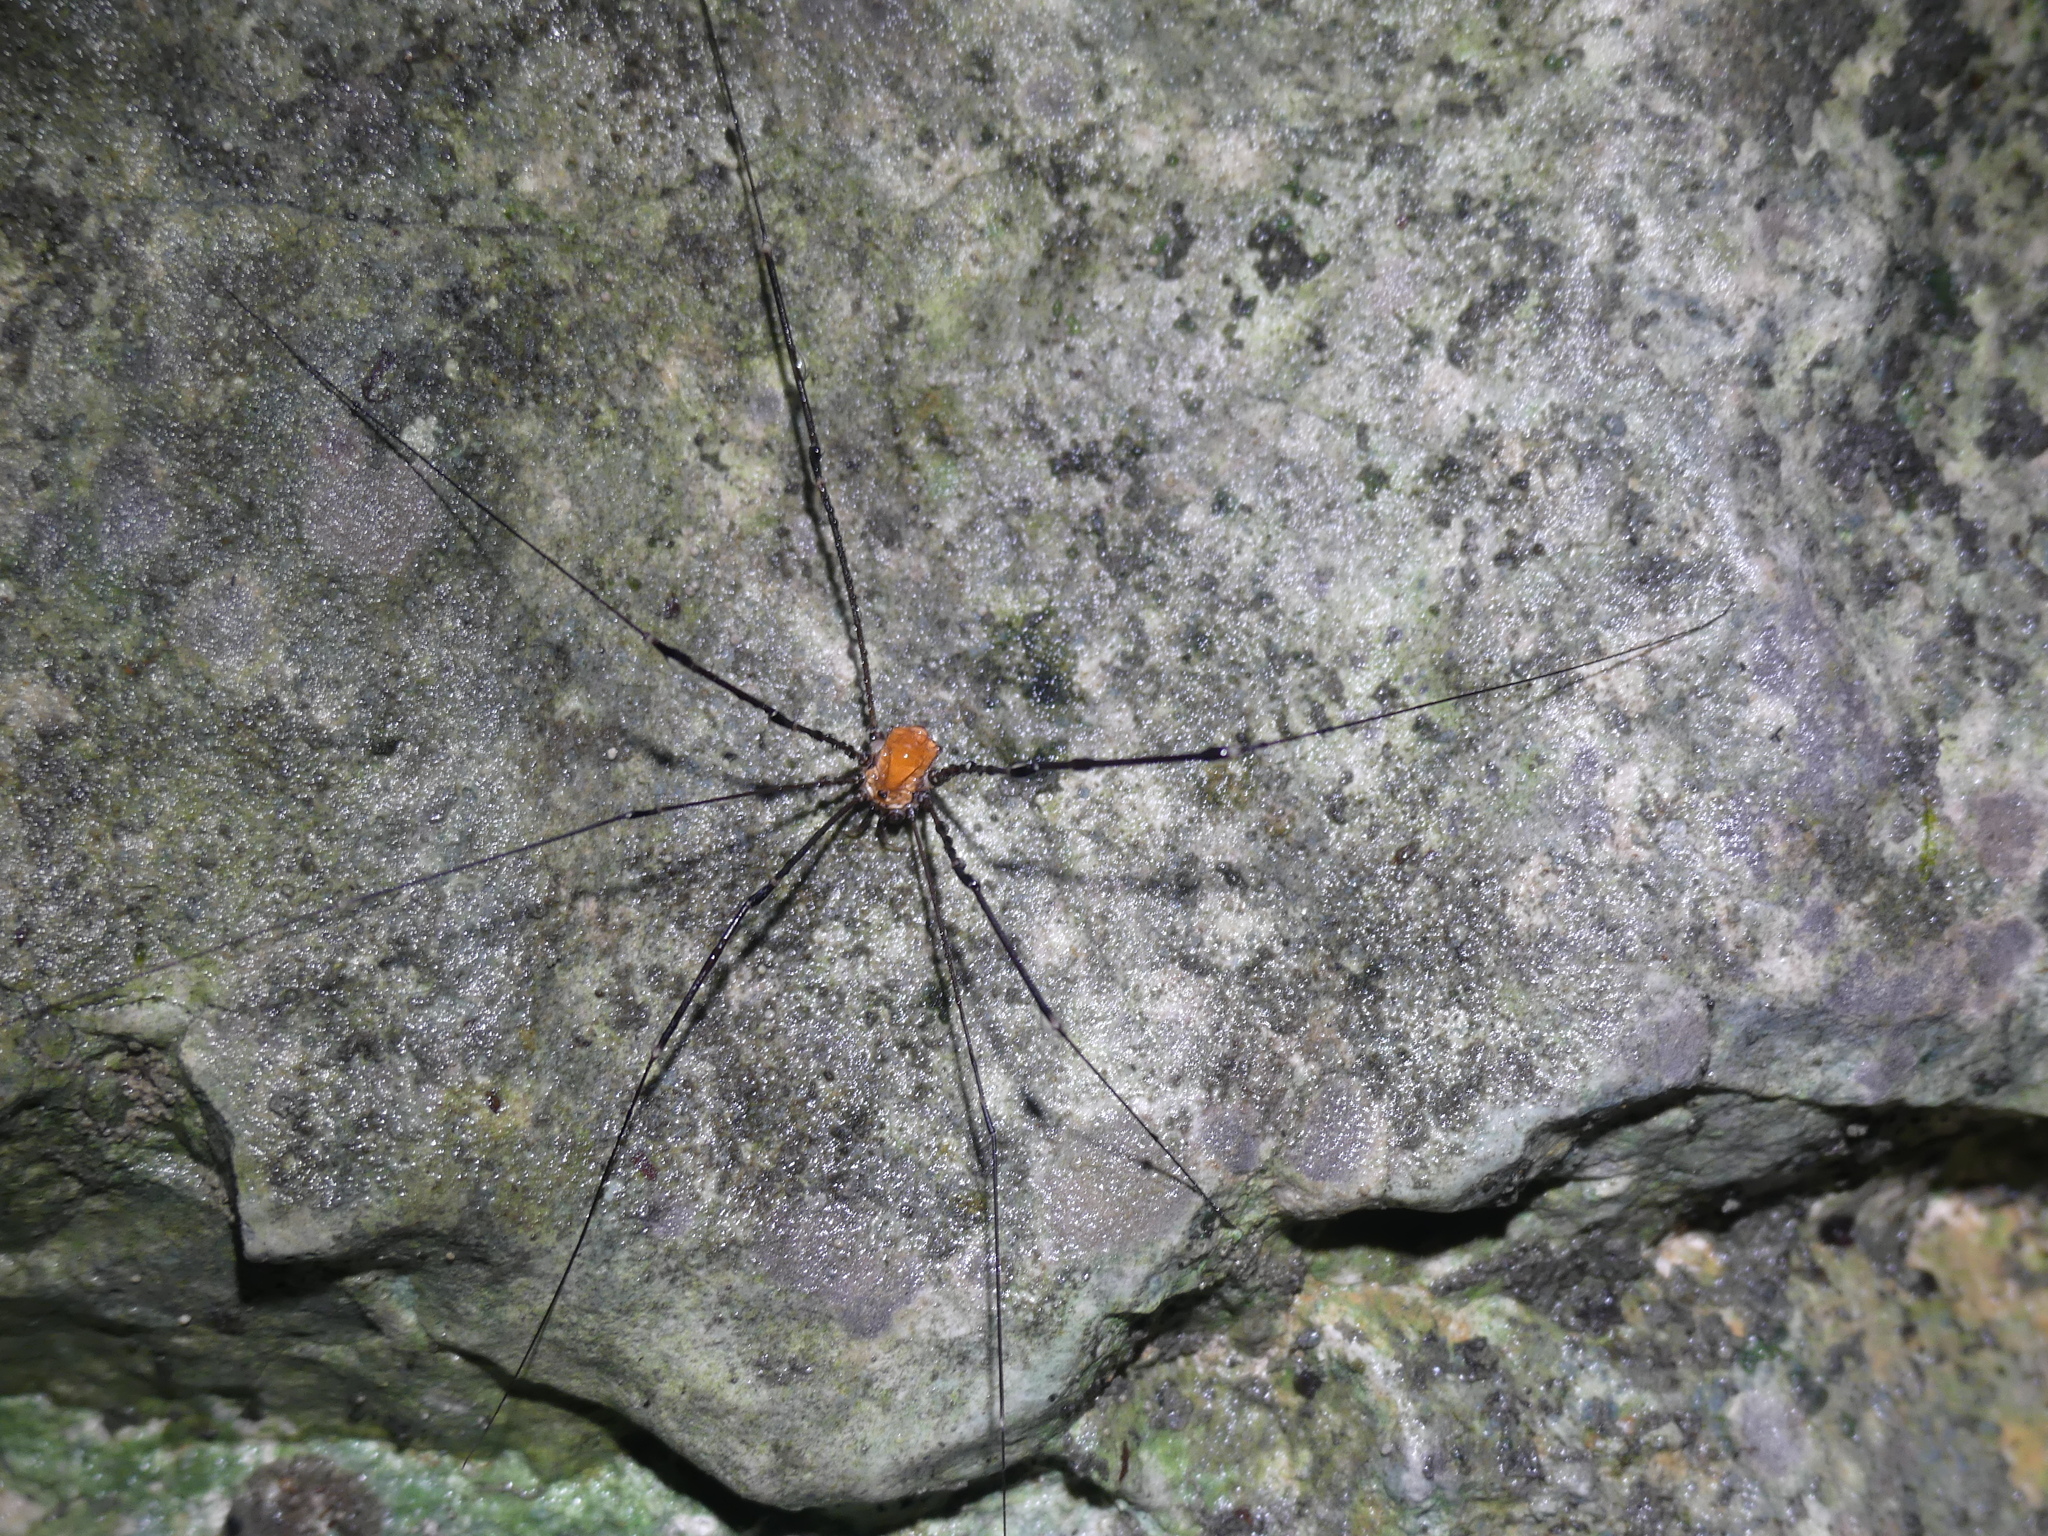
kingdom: Animalia
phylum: Arthropoda
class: Arachnida
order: Opiliones
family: Sclerosomatidae
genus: Leiobunum
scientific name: Leiobunum limbatum
